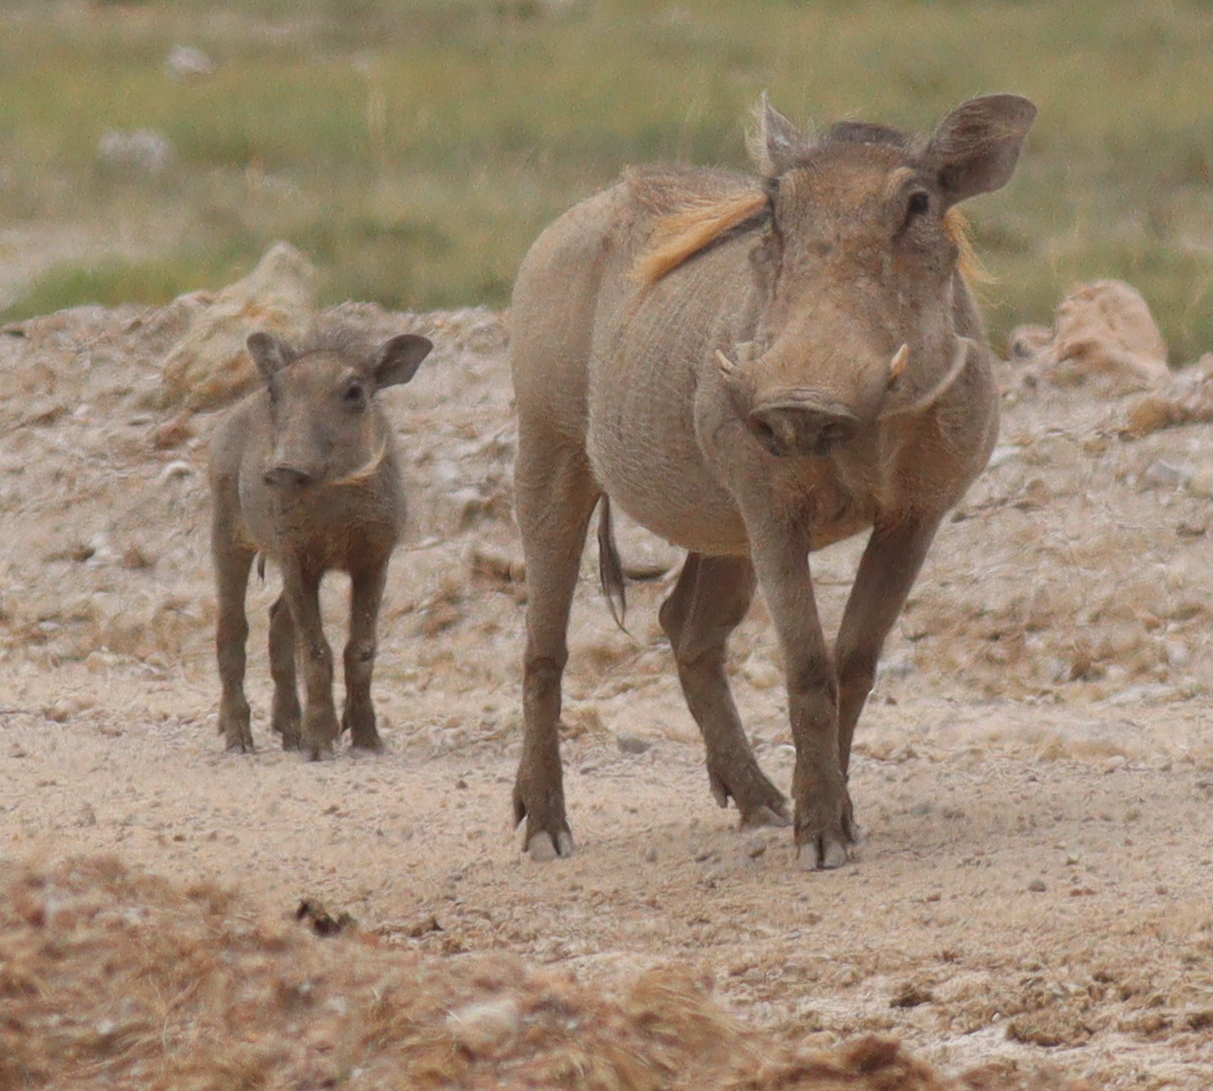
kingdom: Animalia
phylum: Chordata
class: Mammalia
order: Artiodactyla
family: Suidae
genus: Phacochoerus
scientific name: Phacochoerus africanus
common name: Common warthog
